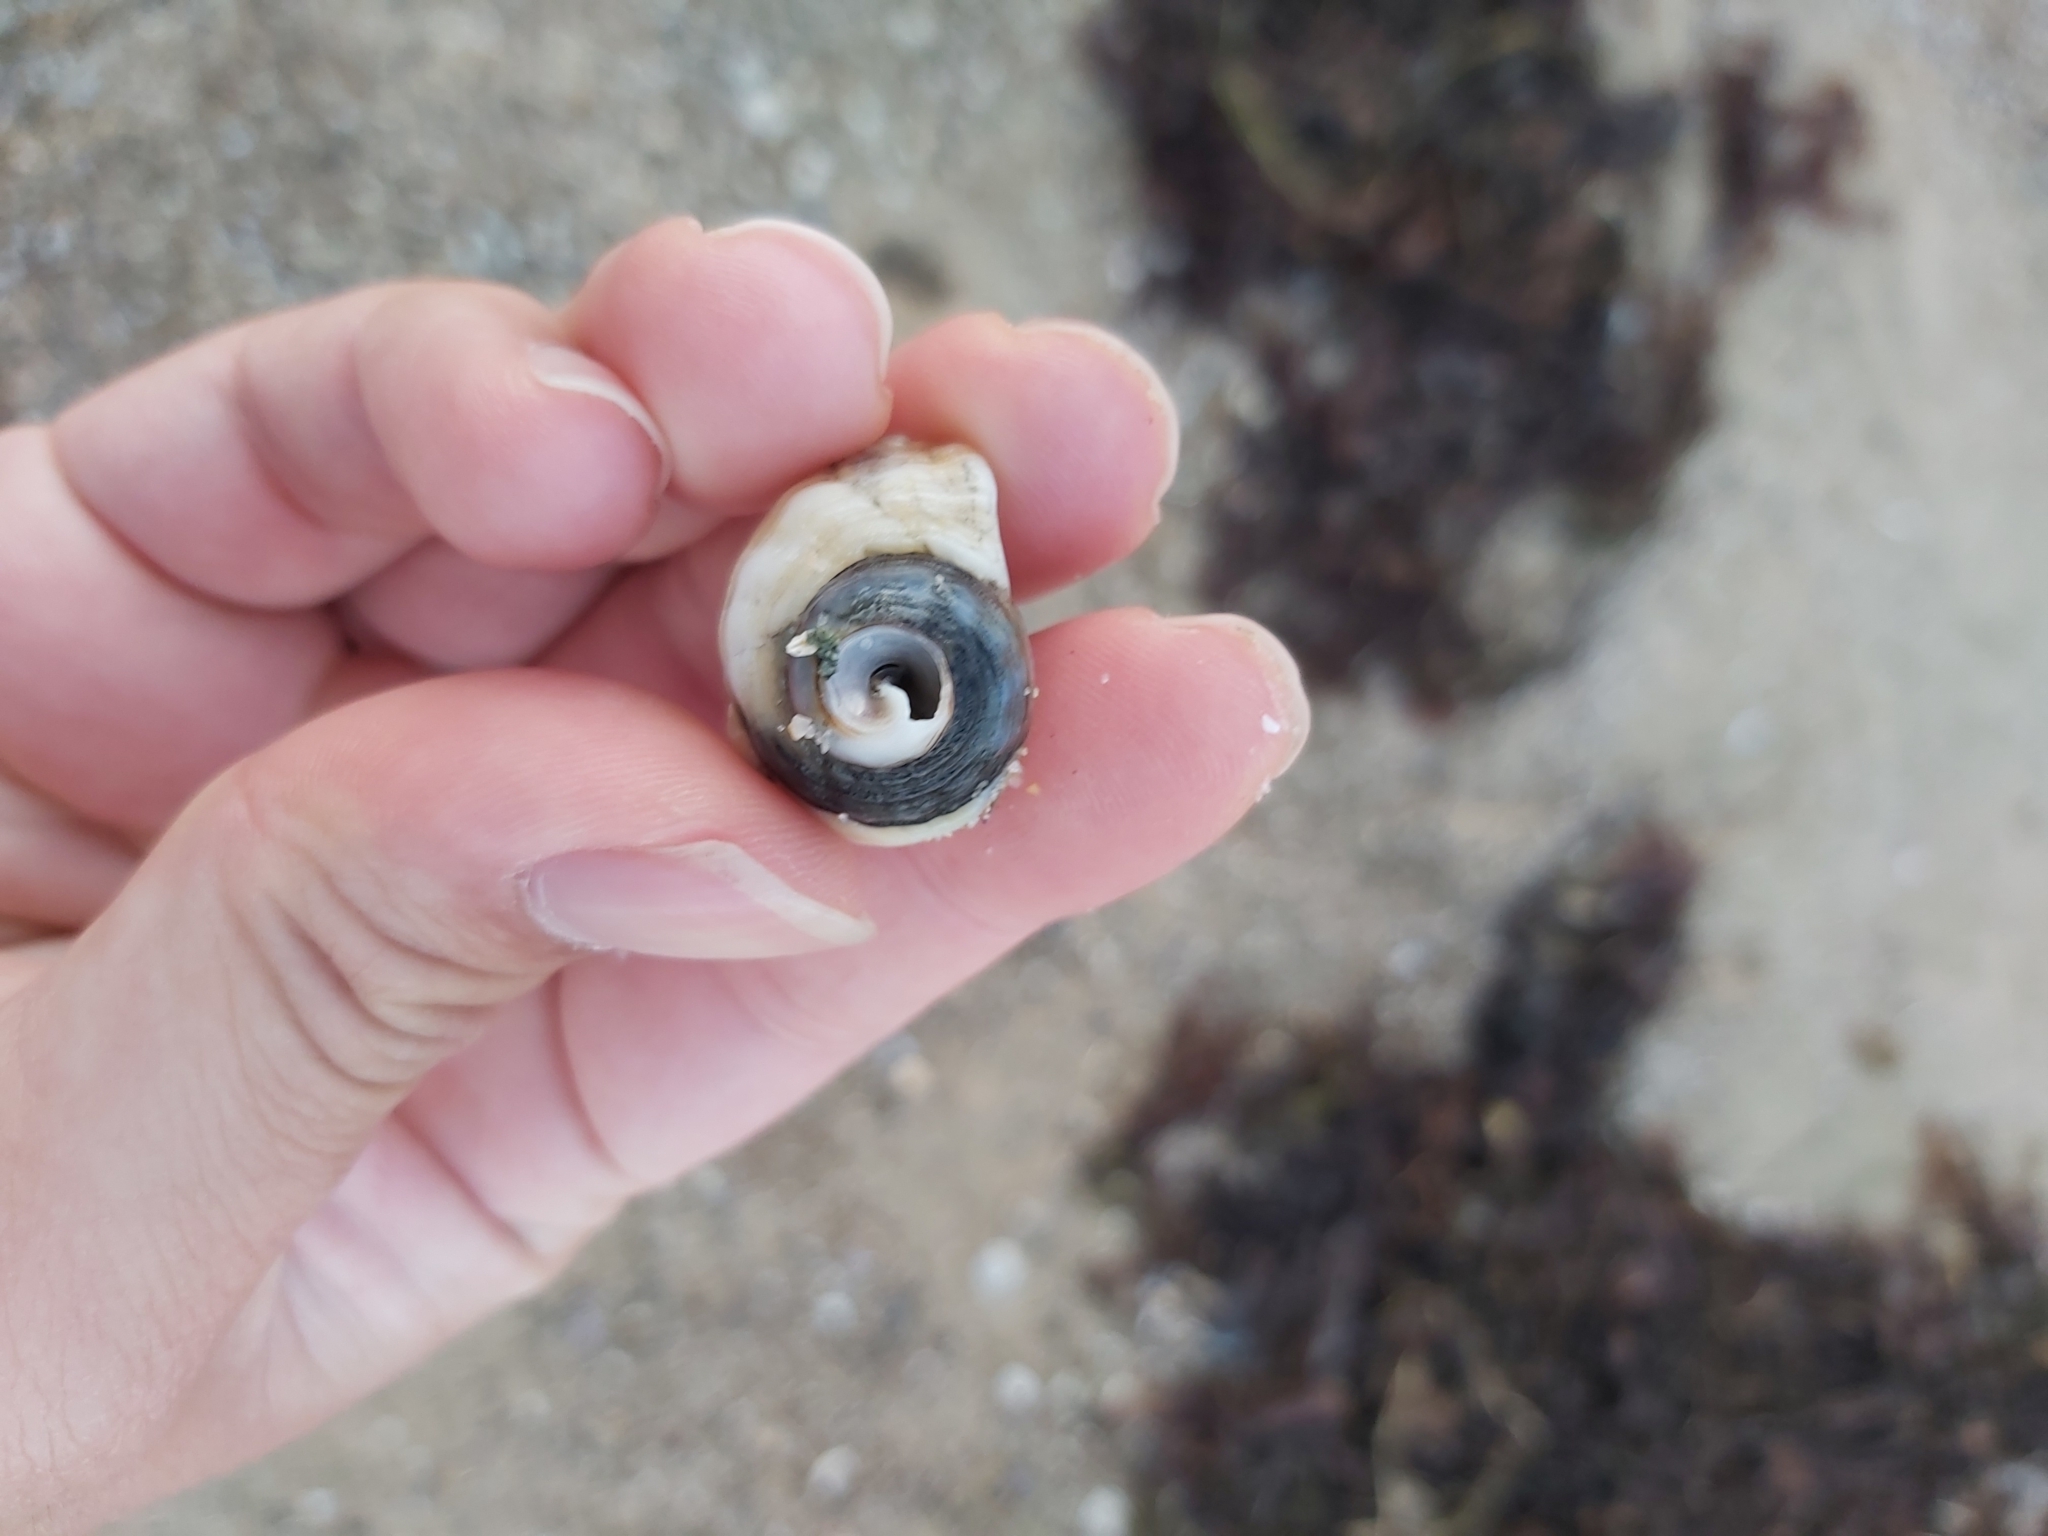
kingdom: Animalia
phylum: Mollusca
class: Gastropoda
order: Littorinimorpha
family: Cymatiidae
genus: Cabestana
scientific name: Cabestana spengleri
